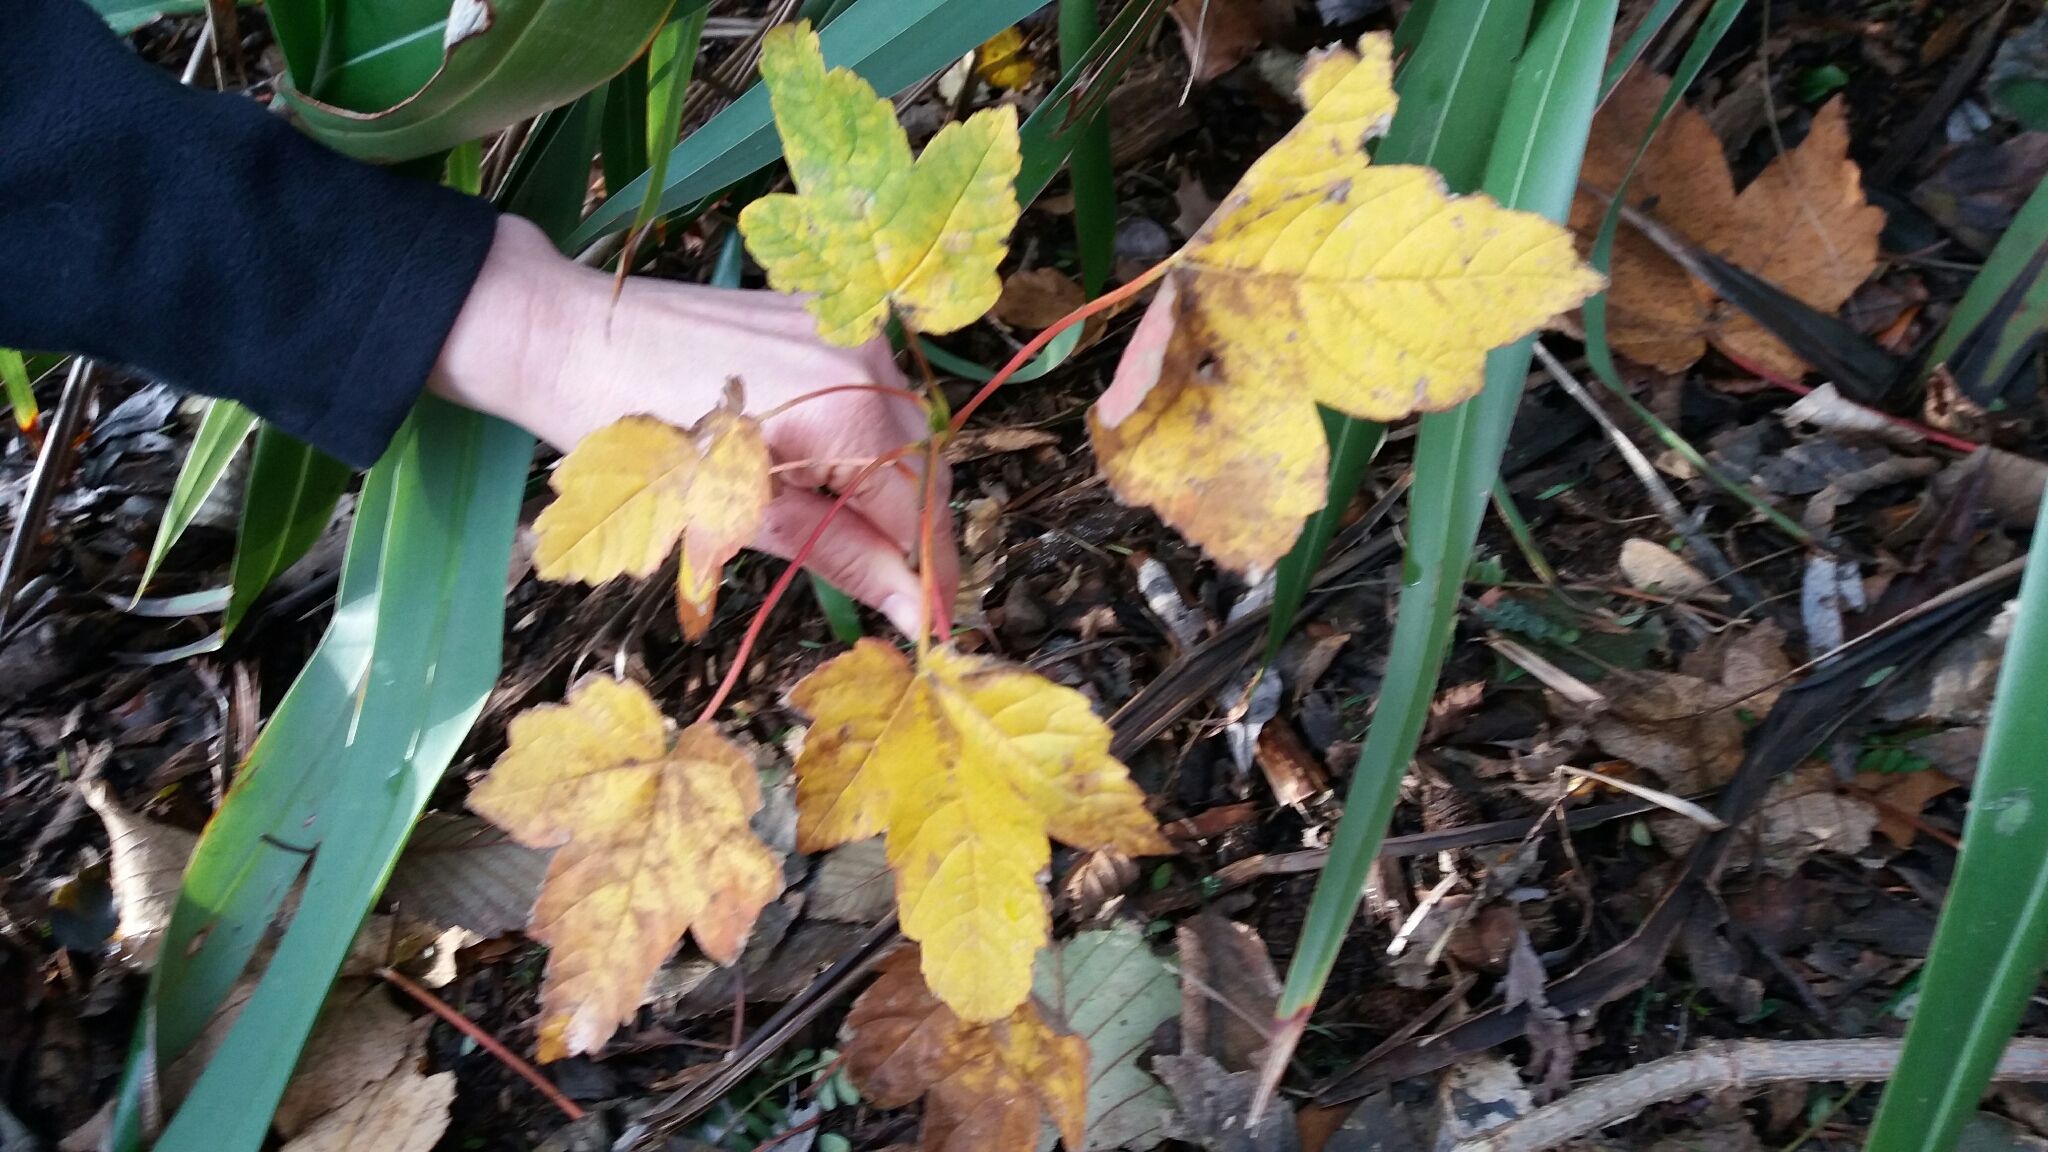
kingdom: Plantae
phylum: Tracheophyta
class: Magnoliopsida
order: Sapindales
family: Sapindaceae
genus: Acer
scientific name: Acer pseudoplatanus
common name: Sycamore
